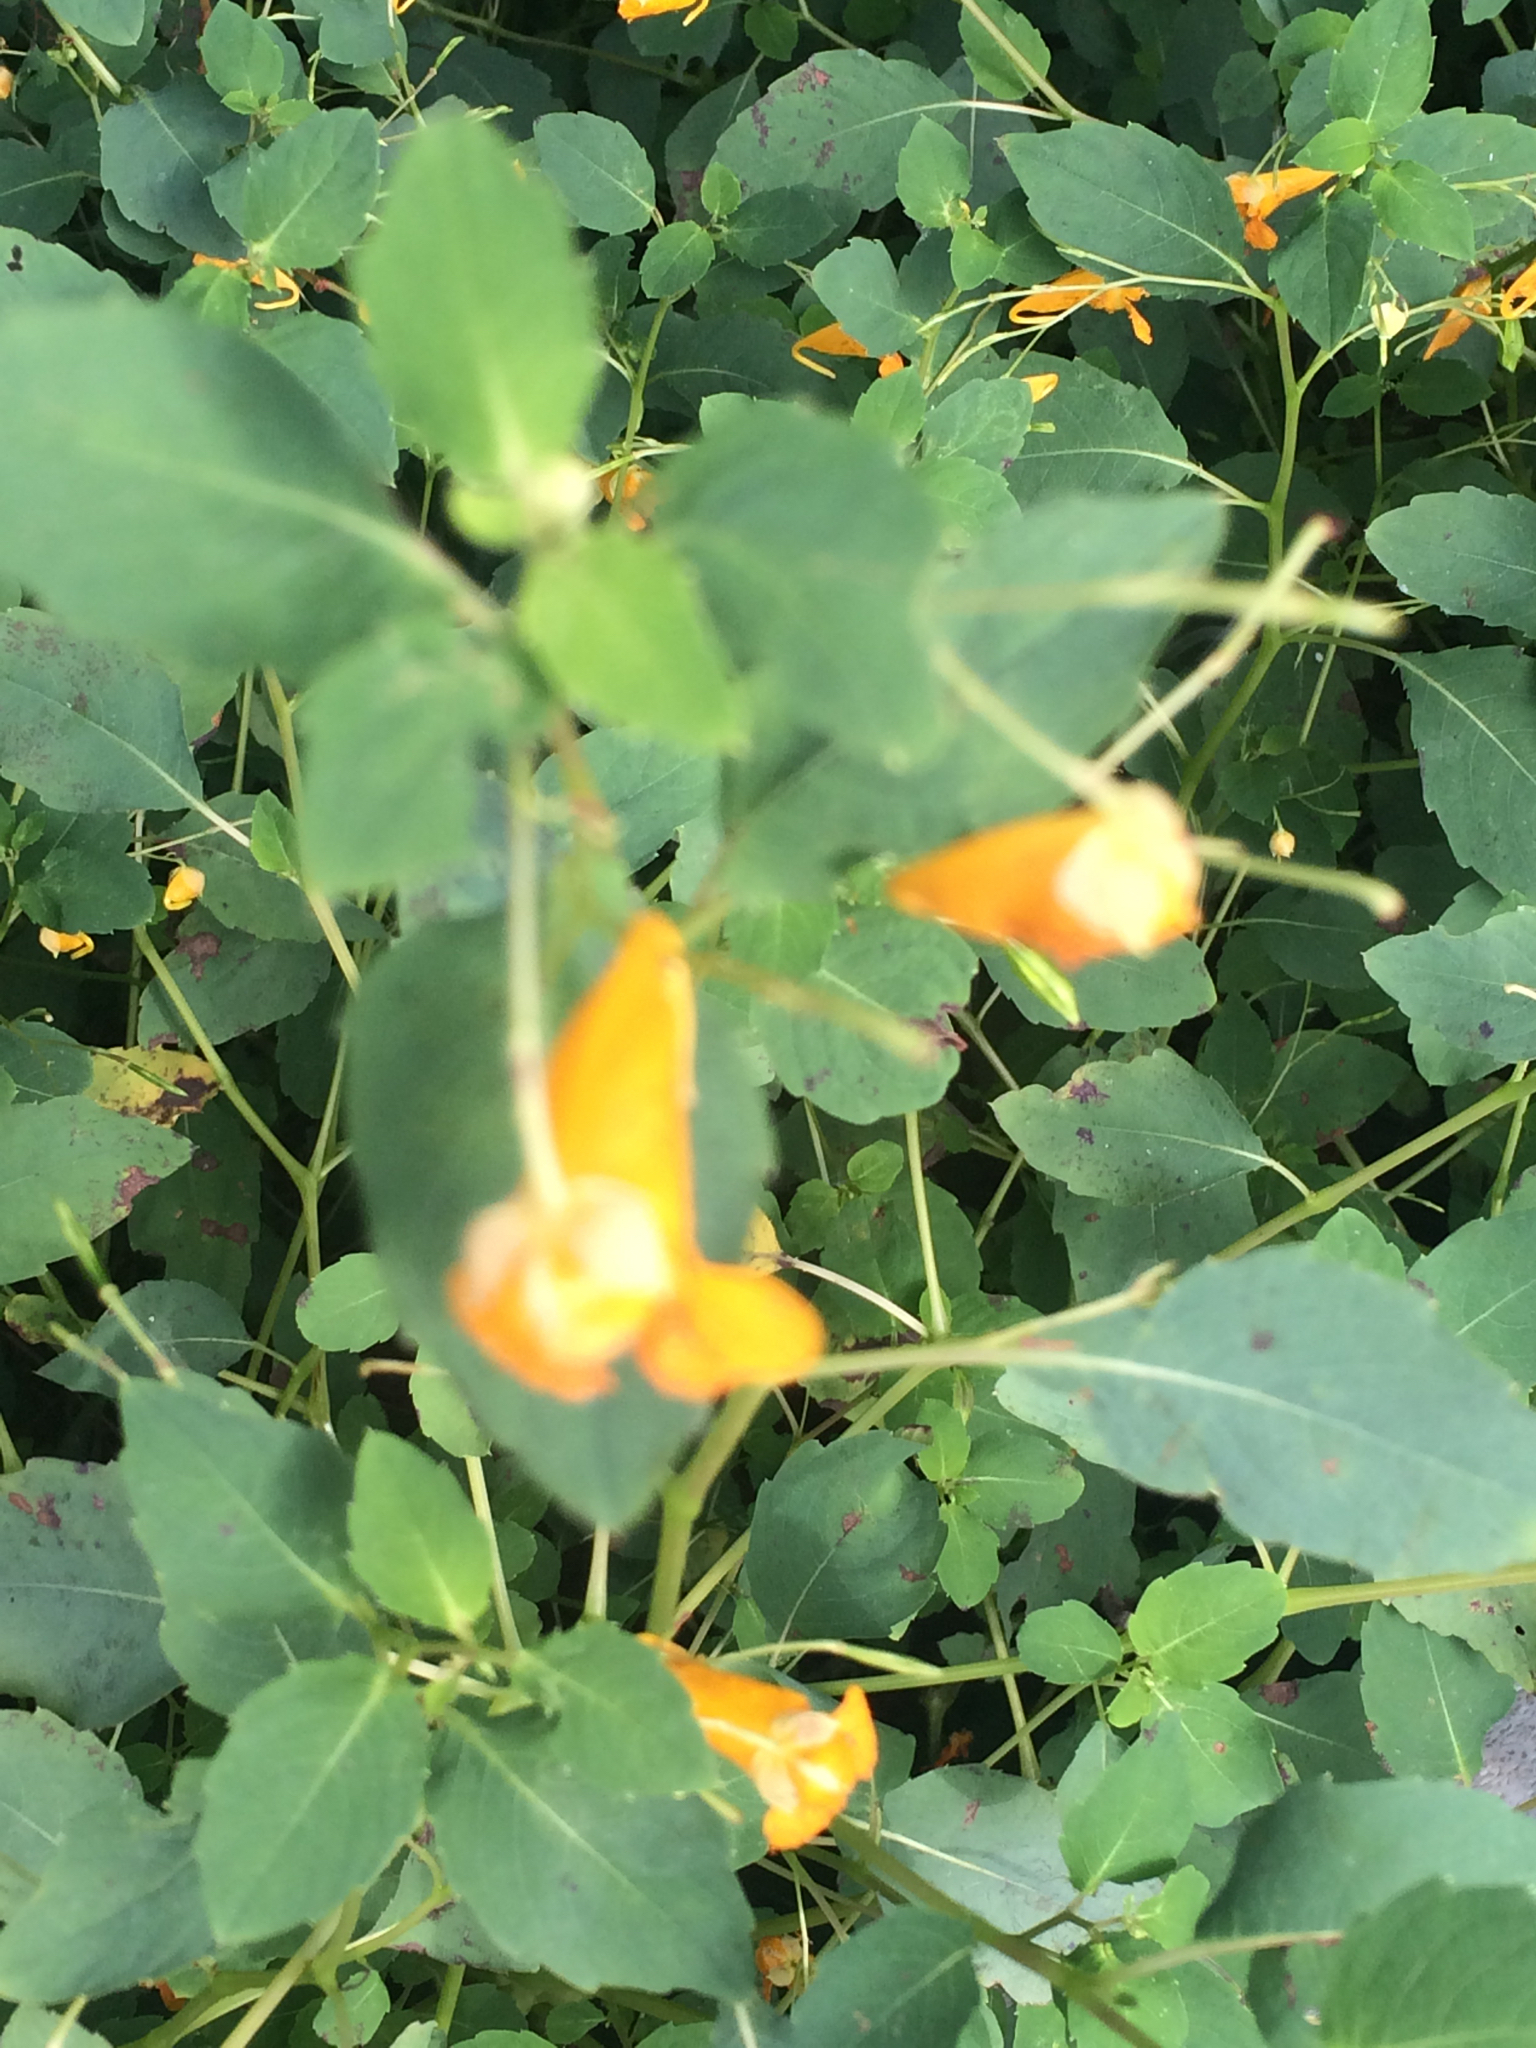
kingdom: Plantae
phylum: Tracheophyta
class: Magnoliopsida
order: Ericales
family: Balsaminaceae
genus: Impatiens
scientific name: Impatiens capensis
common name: Orange balsam
